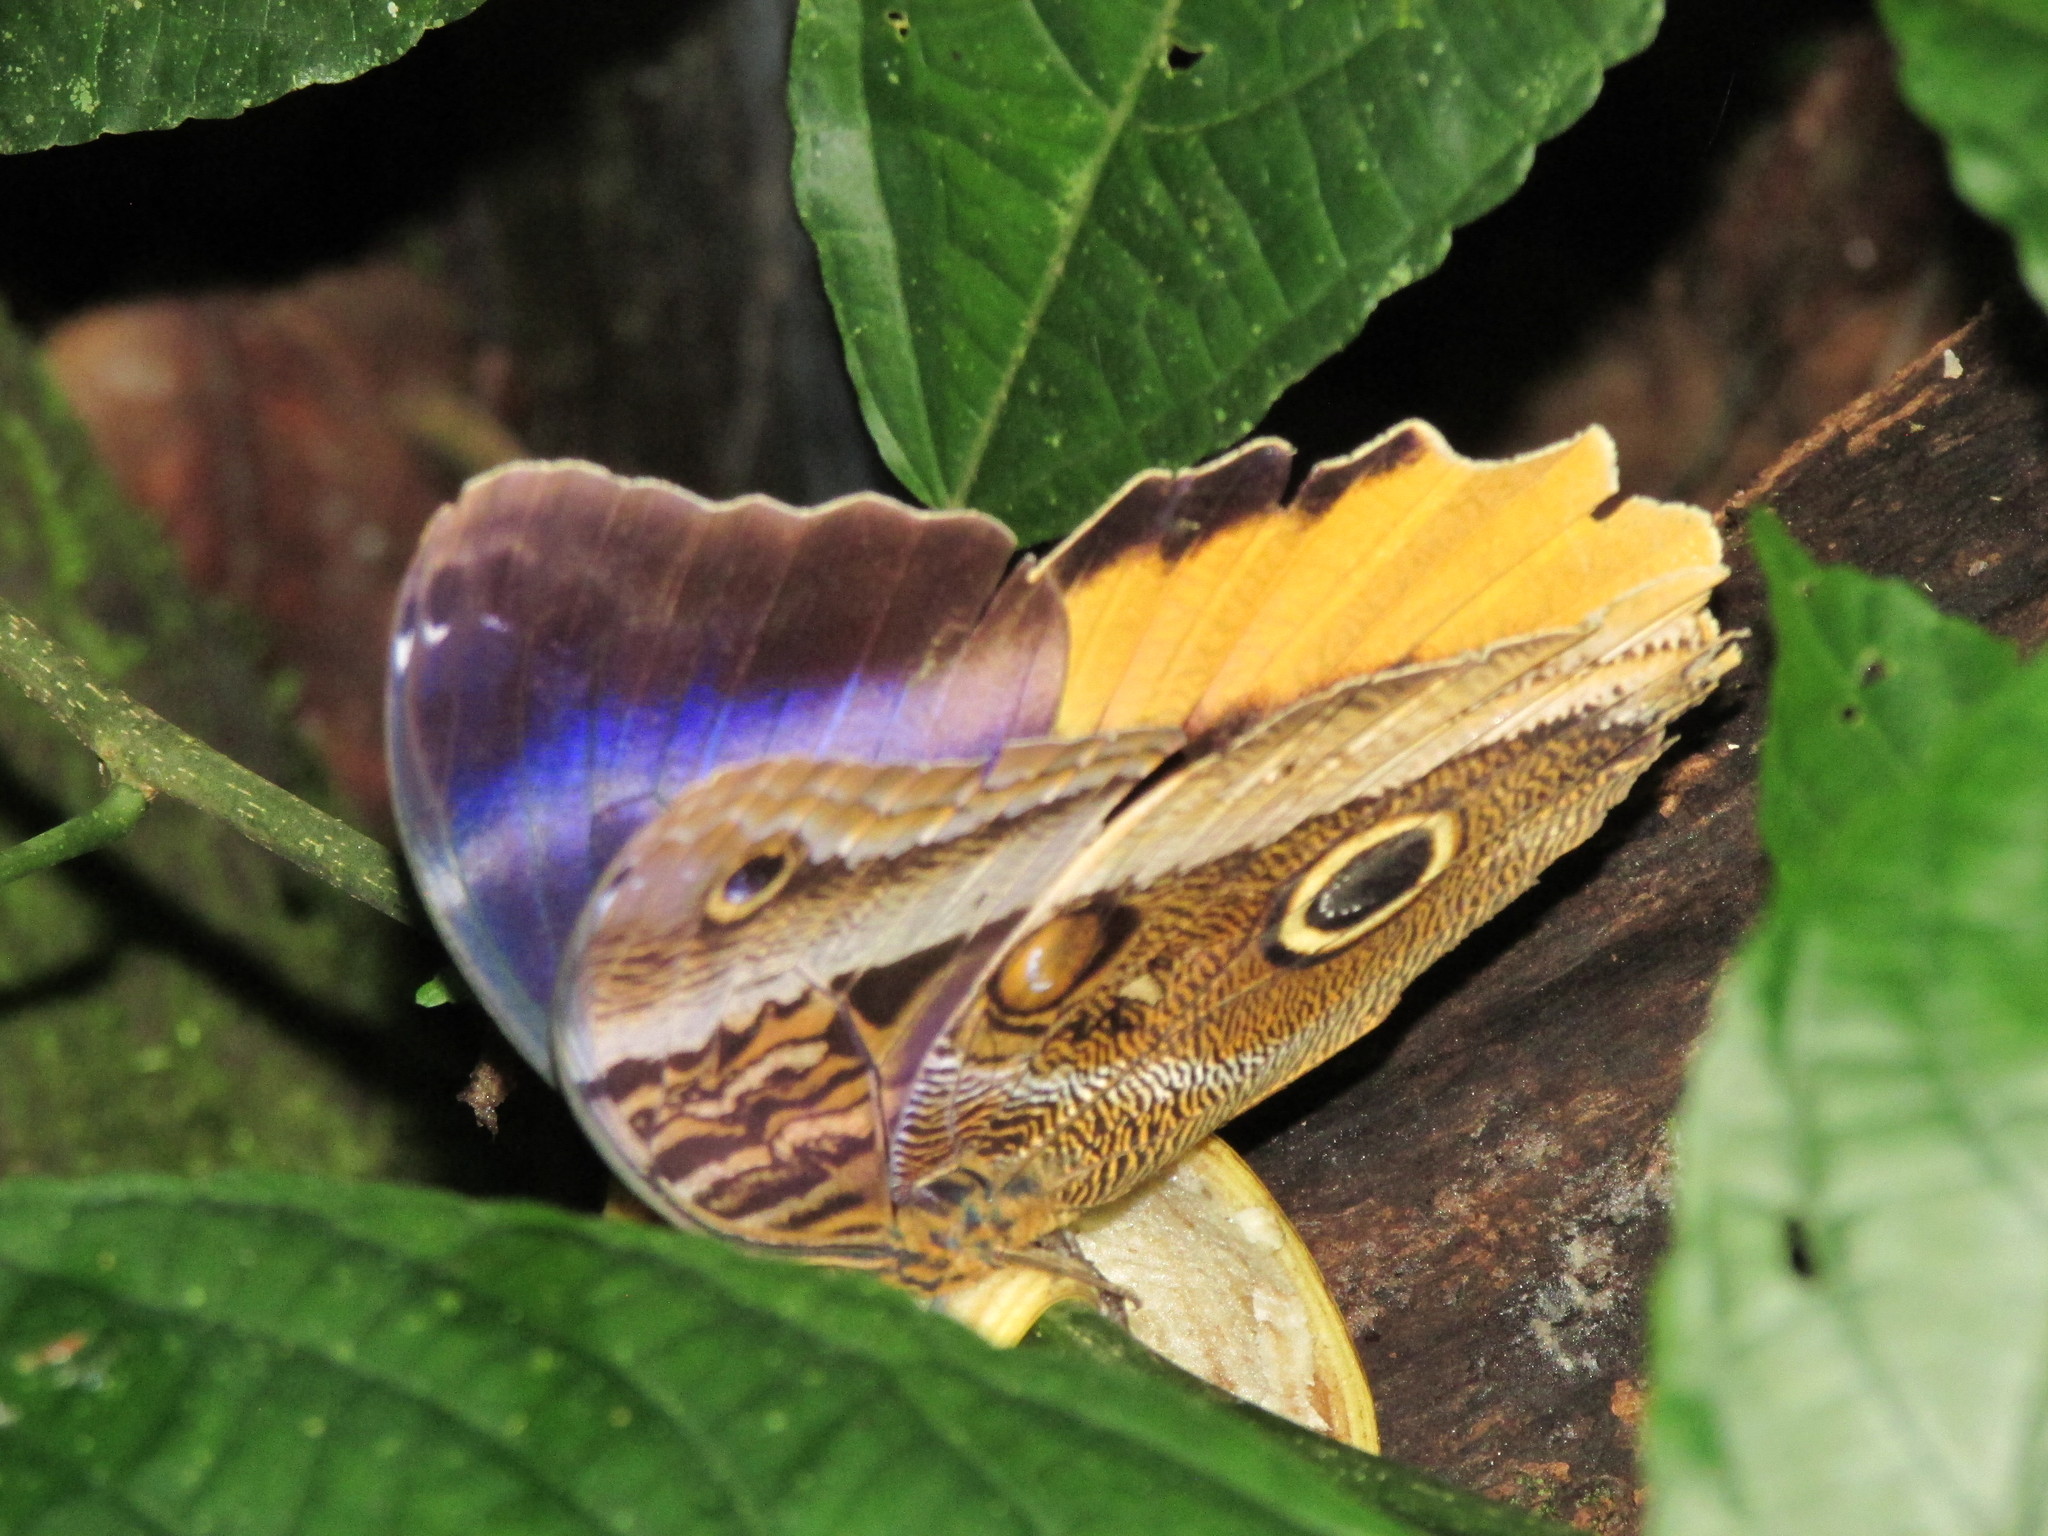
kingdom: Animalia
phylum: Arthropoda
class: Insecta
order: Lepidoptera
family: Nymphalidae
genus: Caligo
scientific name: Caligo atreus
